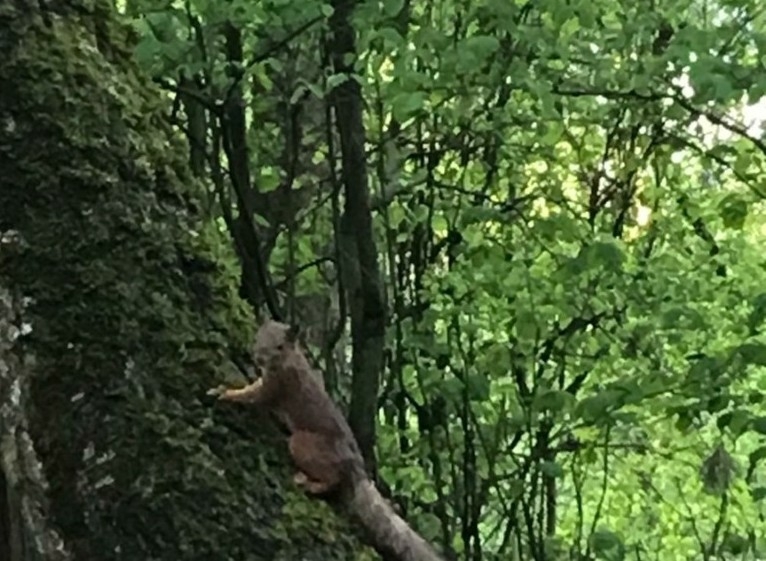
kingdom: Animalia
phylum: Chordata
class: Mammalia
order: Rodentia
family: Sciuridae
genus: Sciurus
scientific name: Sciurus vulgaris
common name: Eurasian red squirrel
